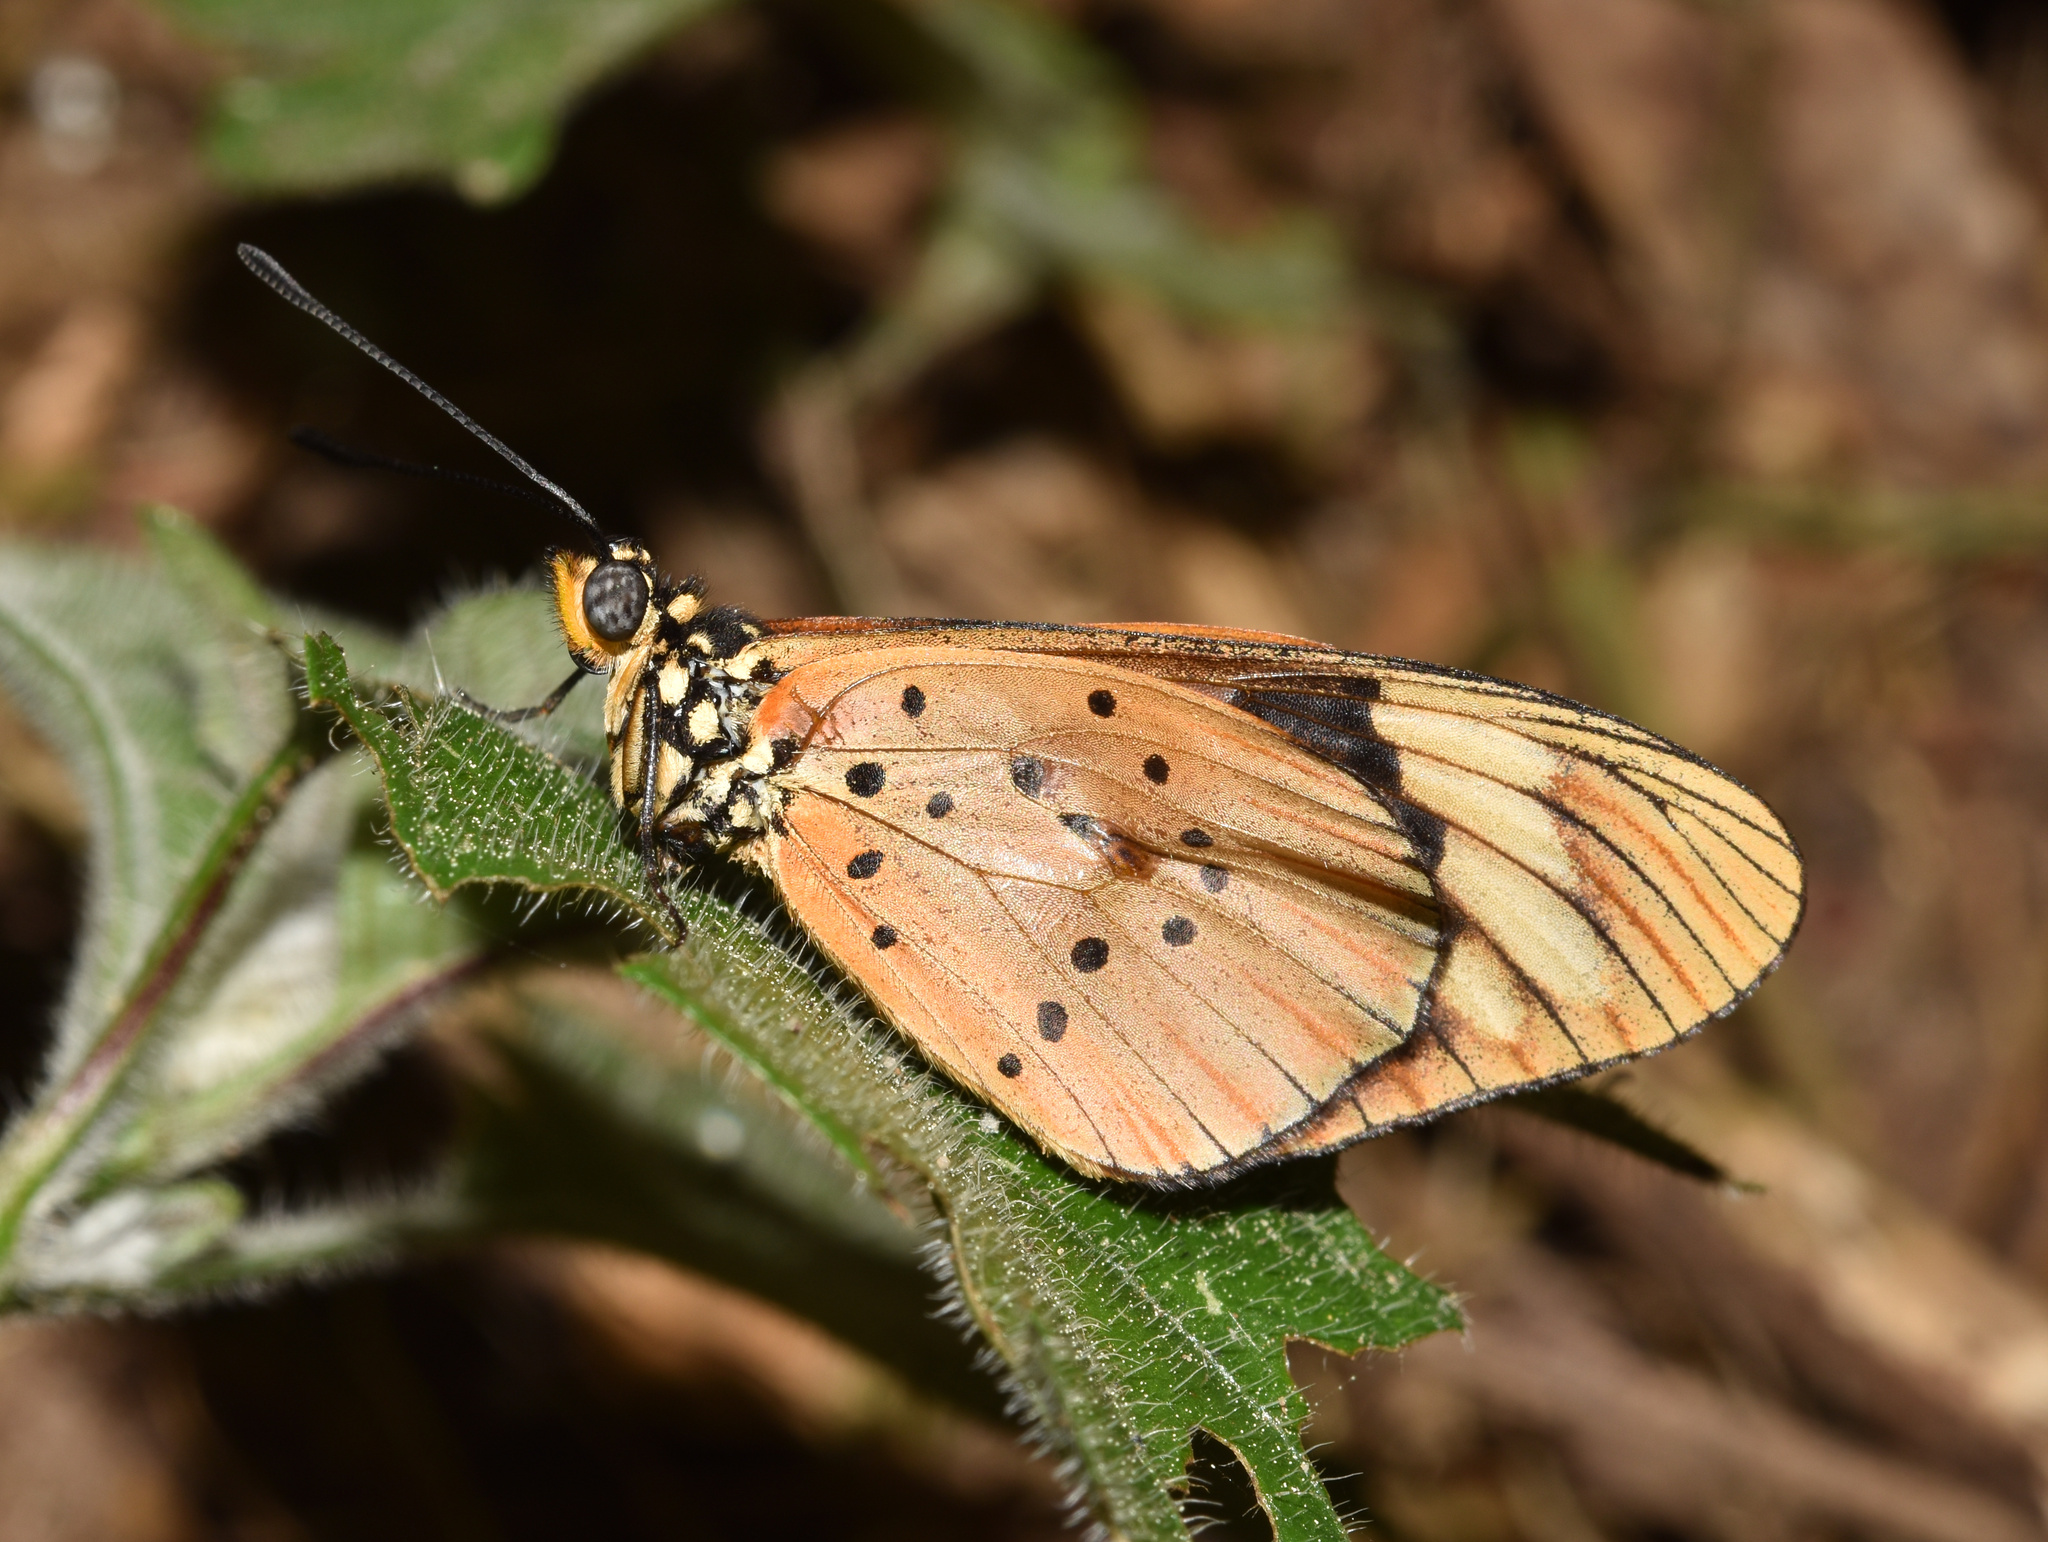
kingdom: Animalia
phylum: Arthropoda
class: Insecta
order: Lepidoptera
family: Nymphalidae
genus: Acraea
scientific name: Acraea Telchinia encedon
